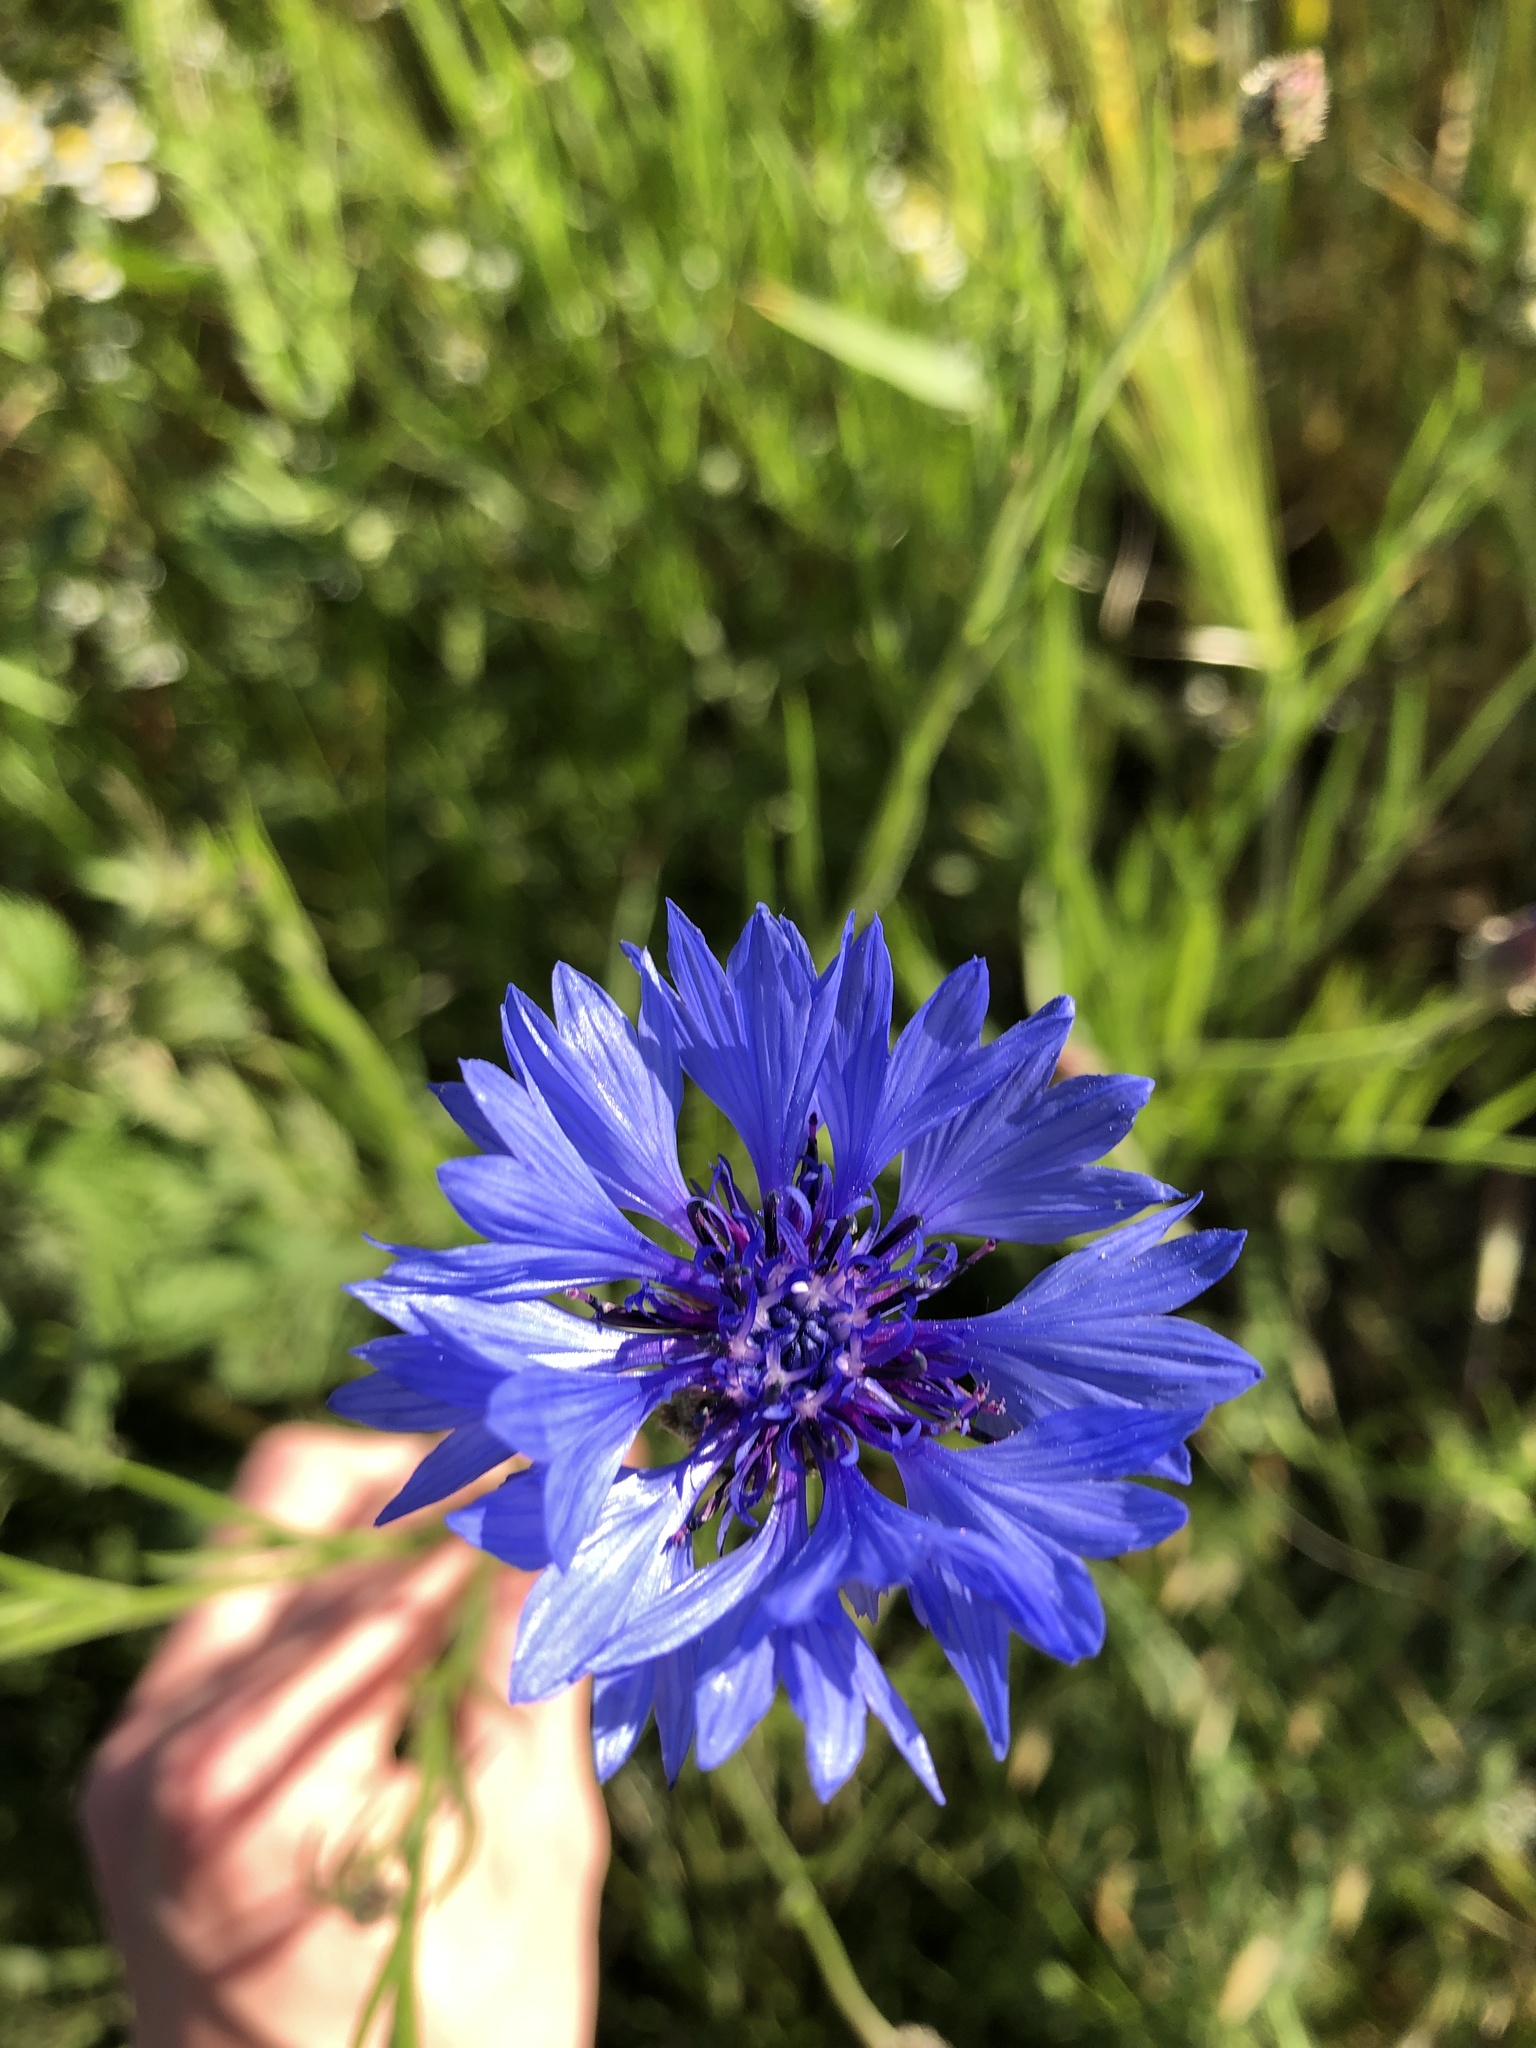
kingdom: Plantae
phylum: Tracheophyta
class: Magnoliopsida
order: Asterales
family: Asteraceae
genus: Centaurea
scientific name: Centaurea cyanus
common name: Cornflower
